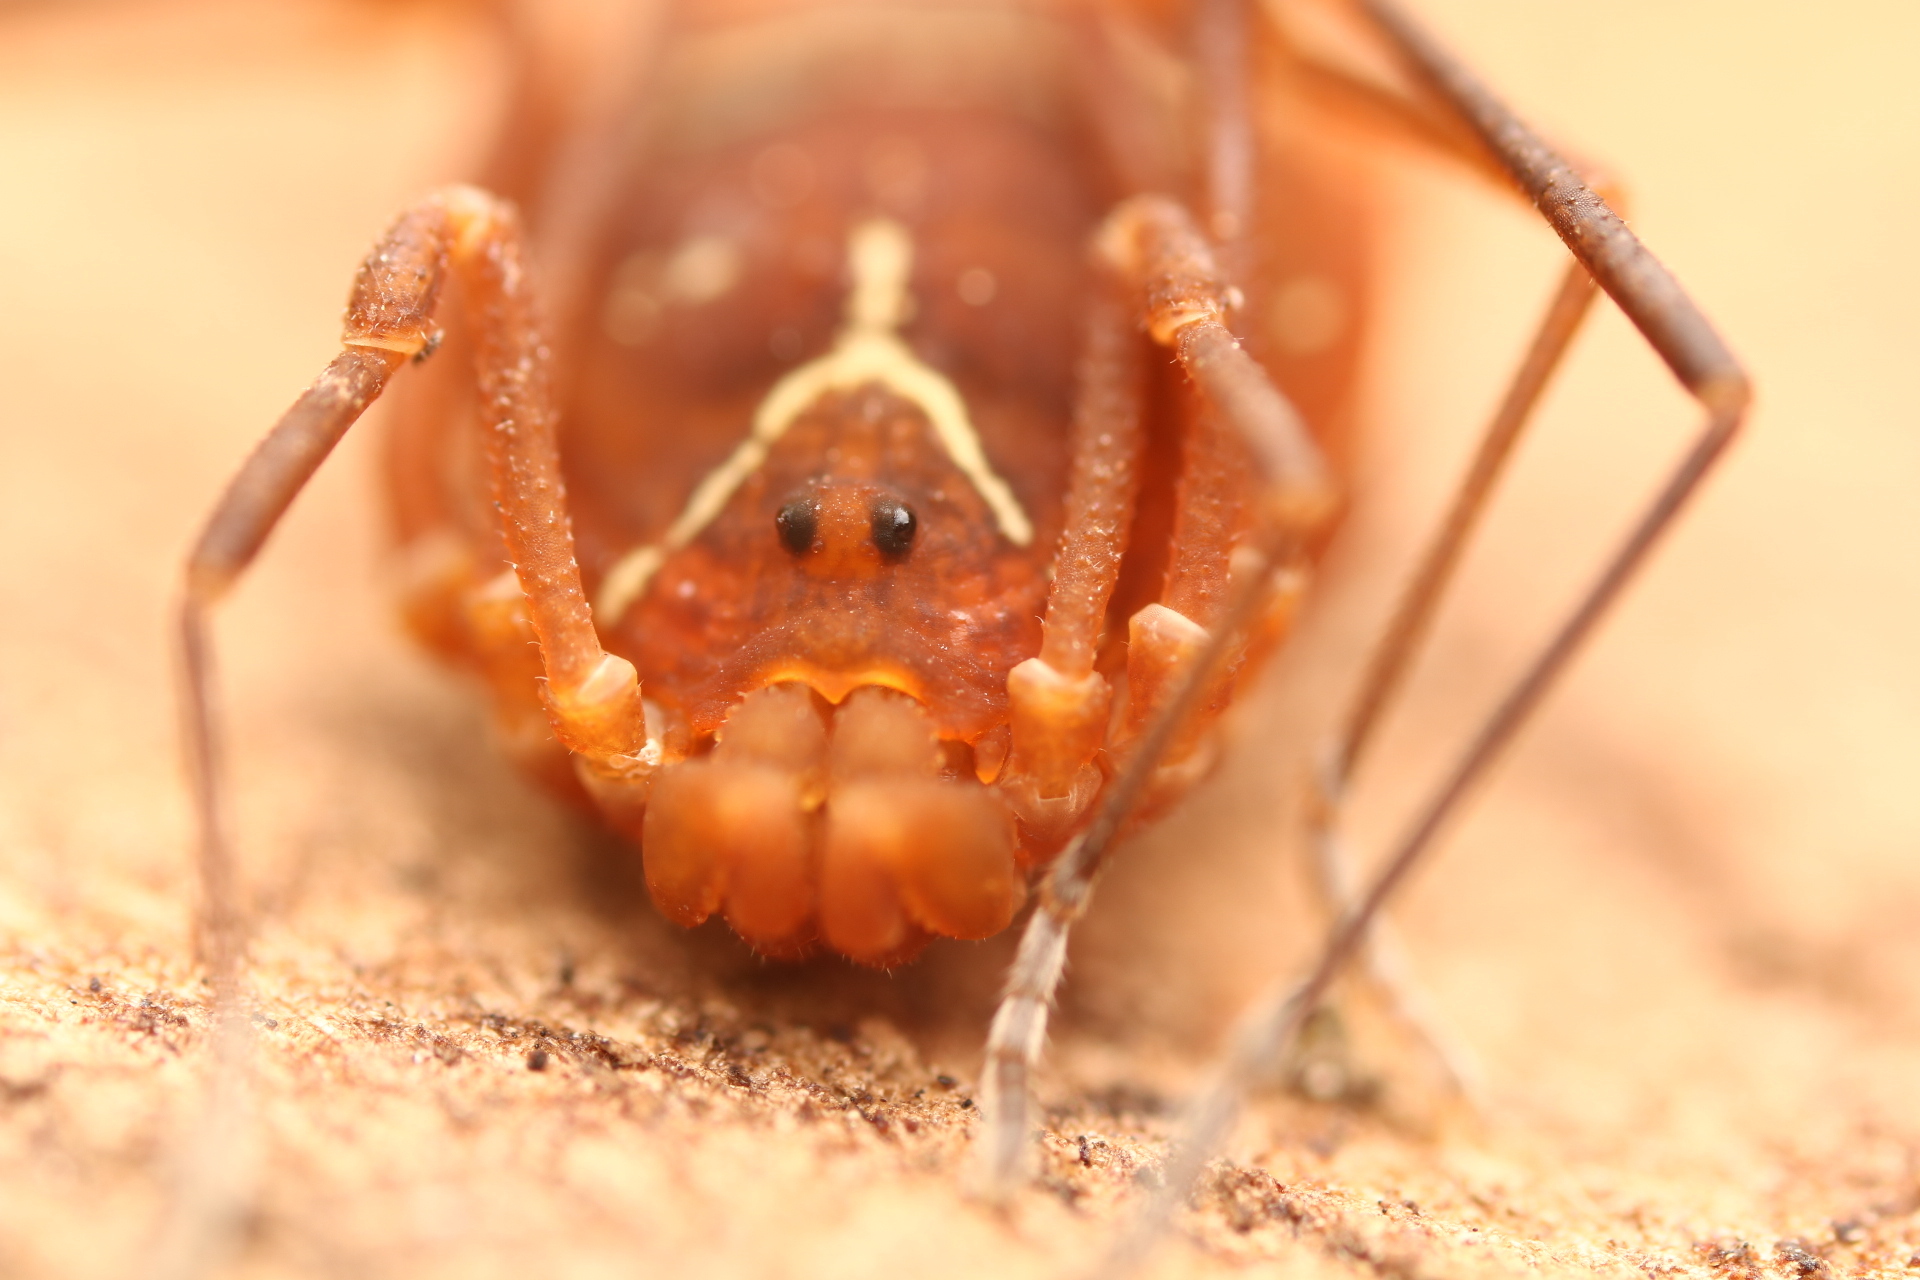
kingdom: Animalia
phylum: Arthropoda
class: Arachnida
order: Opiliones
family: Cosmetidae
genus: Libitioides
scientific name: Libitioides sayi
